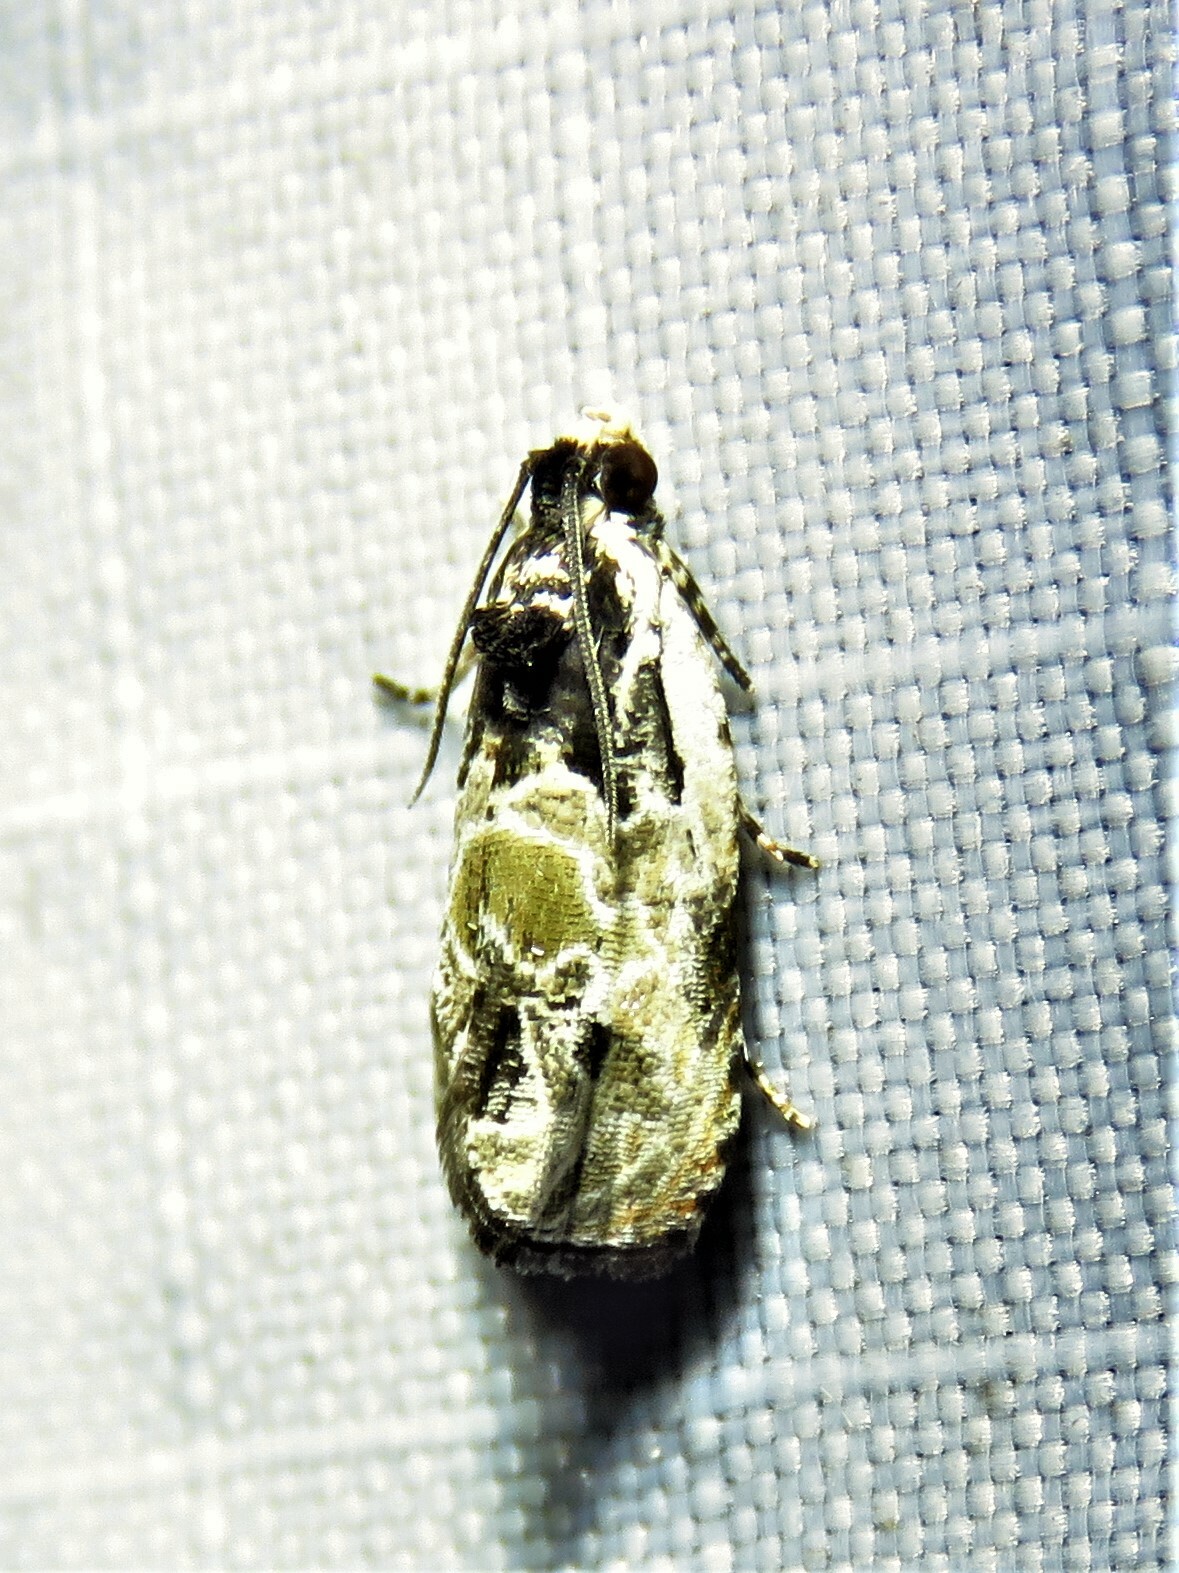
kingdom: Animalia
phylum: Arthropoda
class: Insecta
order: Lepidoptera
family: Tortricidae
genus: Olethreutes
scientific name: Olethreutes griseoalbana
